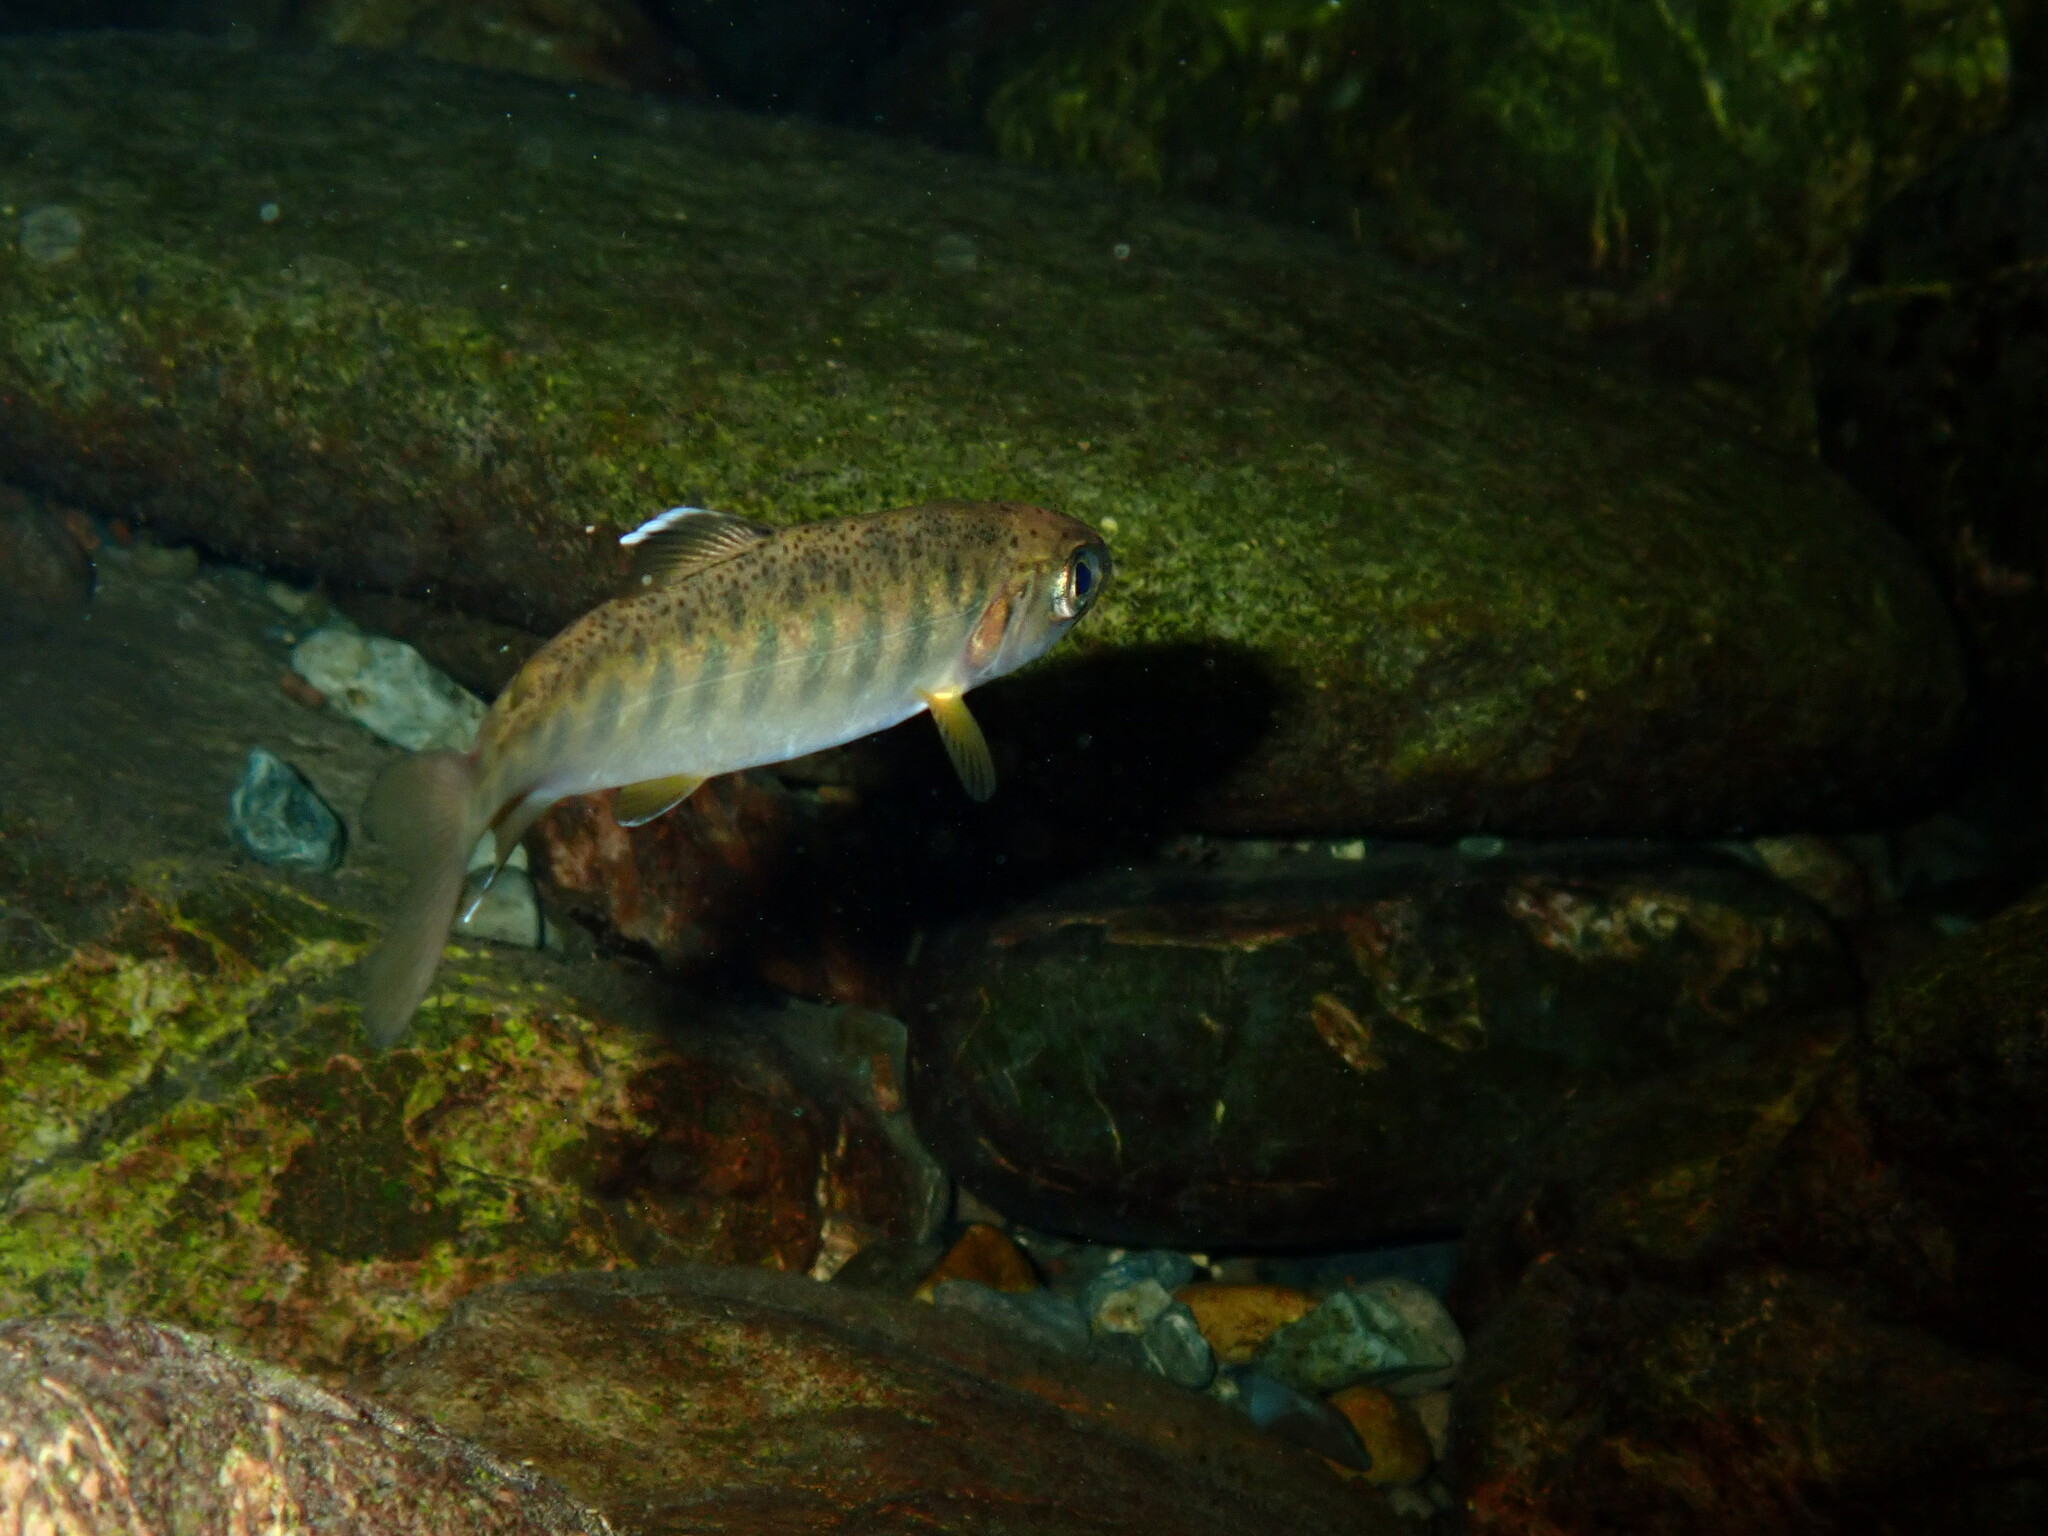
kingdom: Animalia
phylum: Chordata
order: Salmoniformes
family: Salmonidae
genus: Oncorhynchus
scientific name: Oncorhynchus kisutch
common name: Coho salmon
